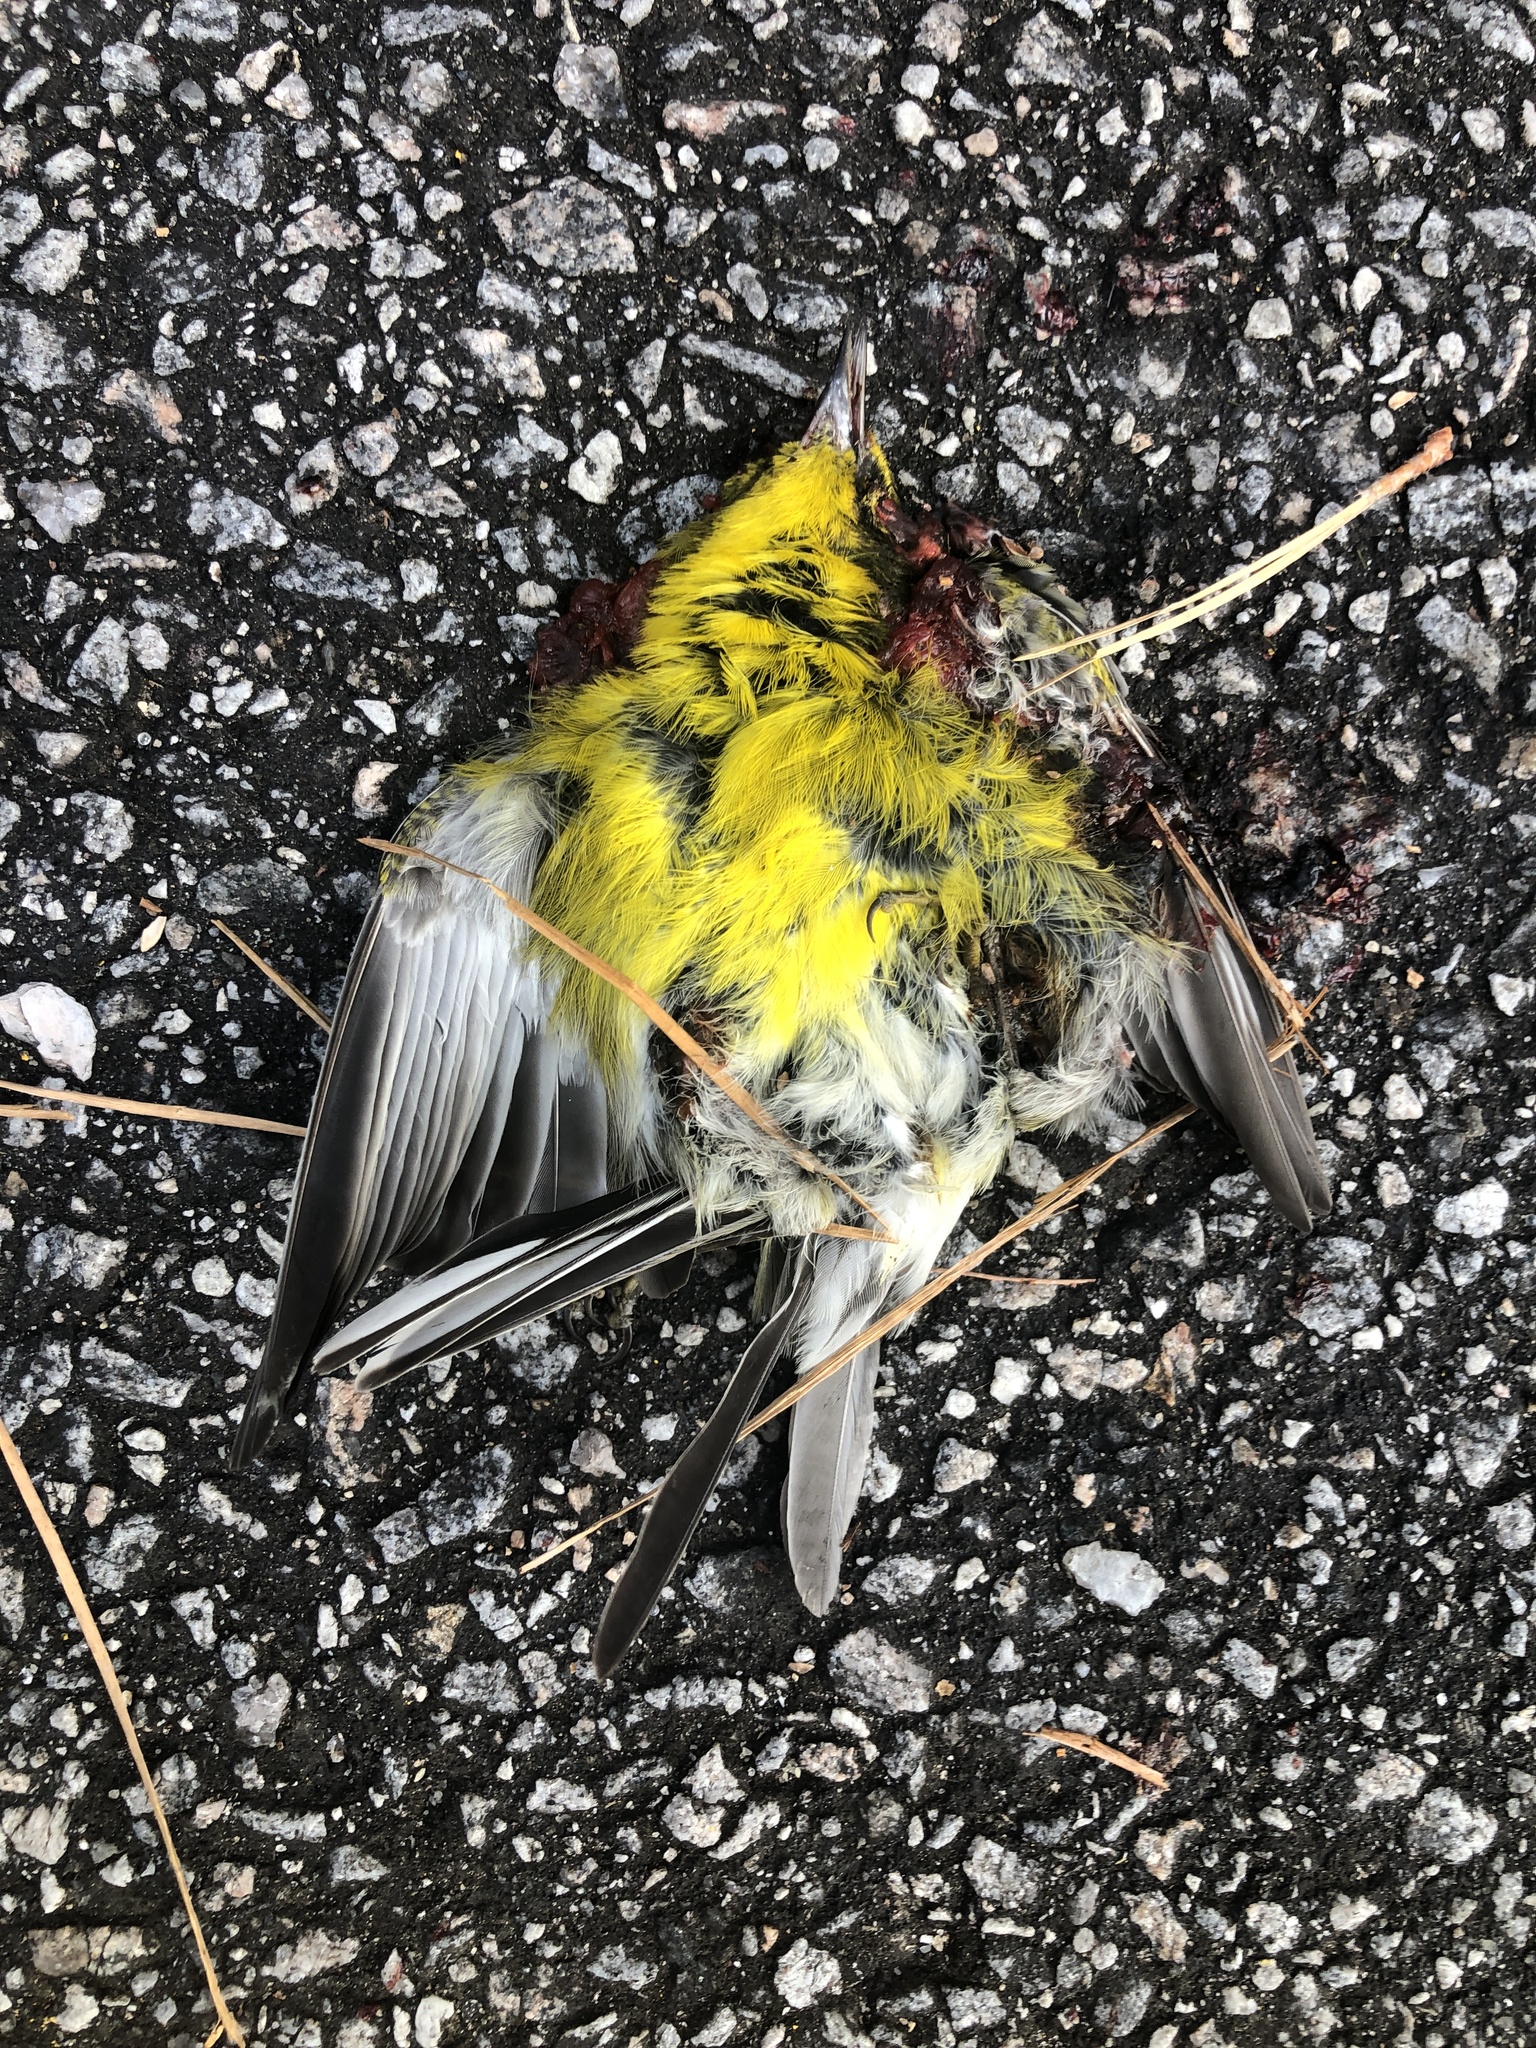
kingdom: Animalia
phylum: Chordata
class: Aves
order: Passeriformes
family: Parulidae
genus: Vermivora
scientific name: Vermivora cyanoptera
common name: Blue-winged warbler
